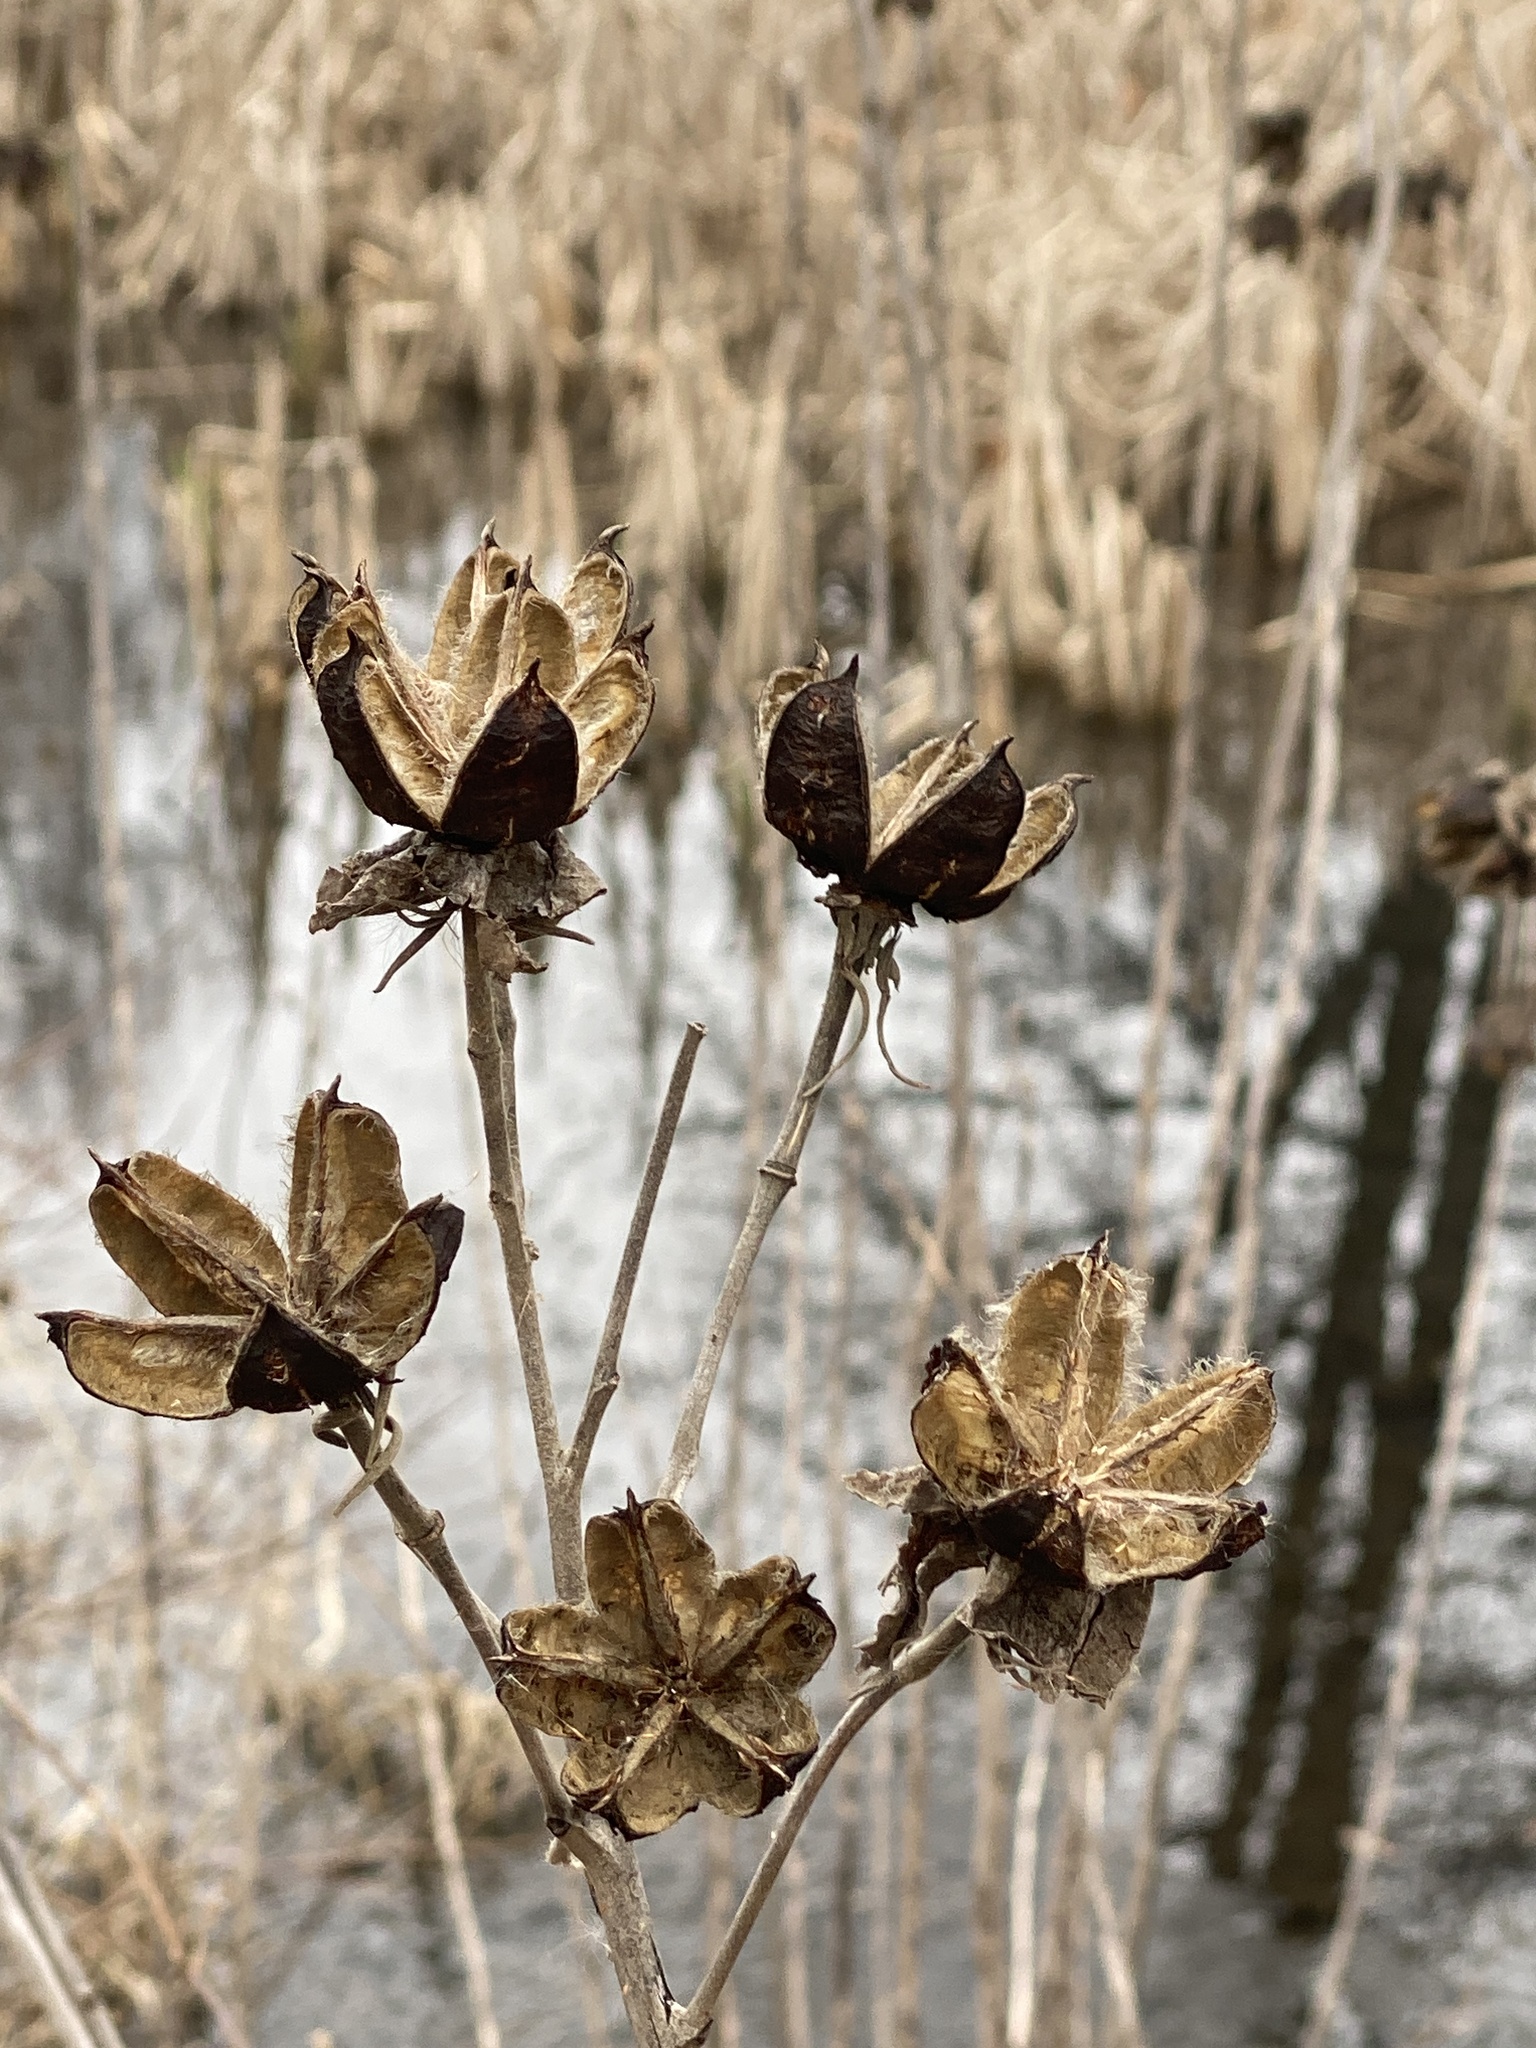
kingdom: Plantae
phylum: Tracheophyta
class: Magnoliopsida
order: Malvales
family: Malvaceae
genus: Hibiscus
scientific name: Hibiscus moscheutos
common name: Common rose-mallow
